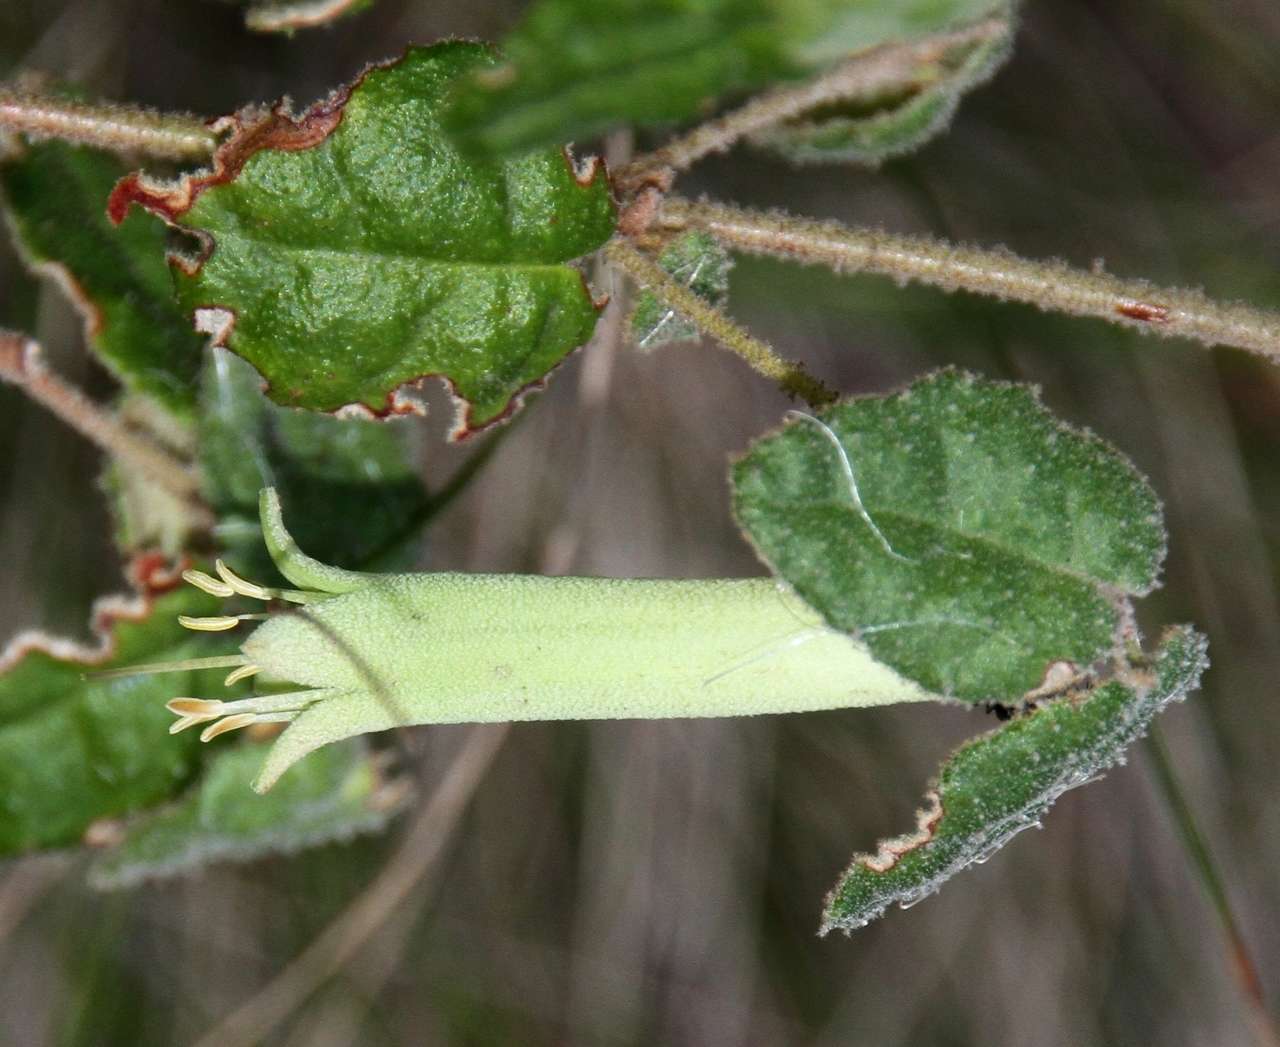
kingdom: Plantae
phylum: Tracheophyta
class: Magnoliopsida
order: Sapindales
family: Rutaceae
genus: Correa
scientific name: Correa reflexa
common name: Common correa
